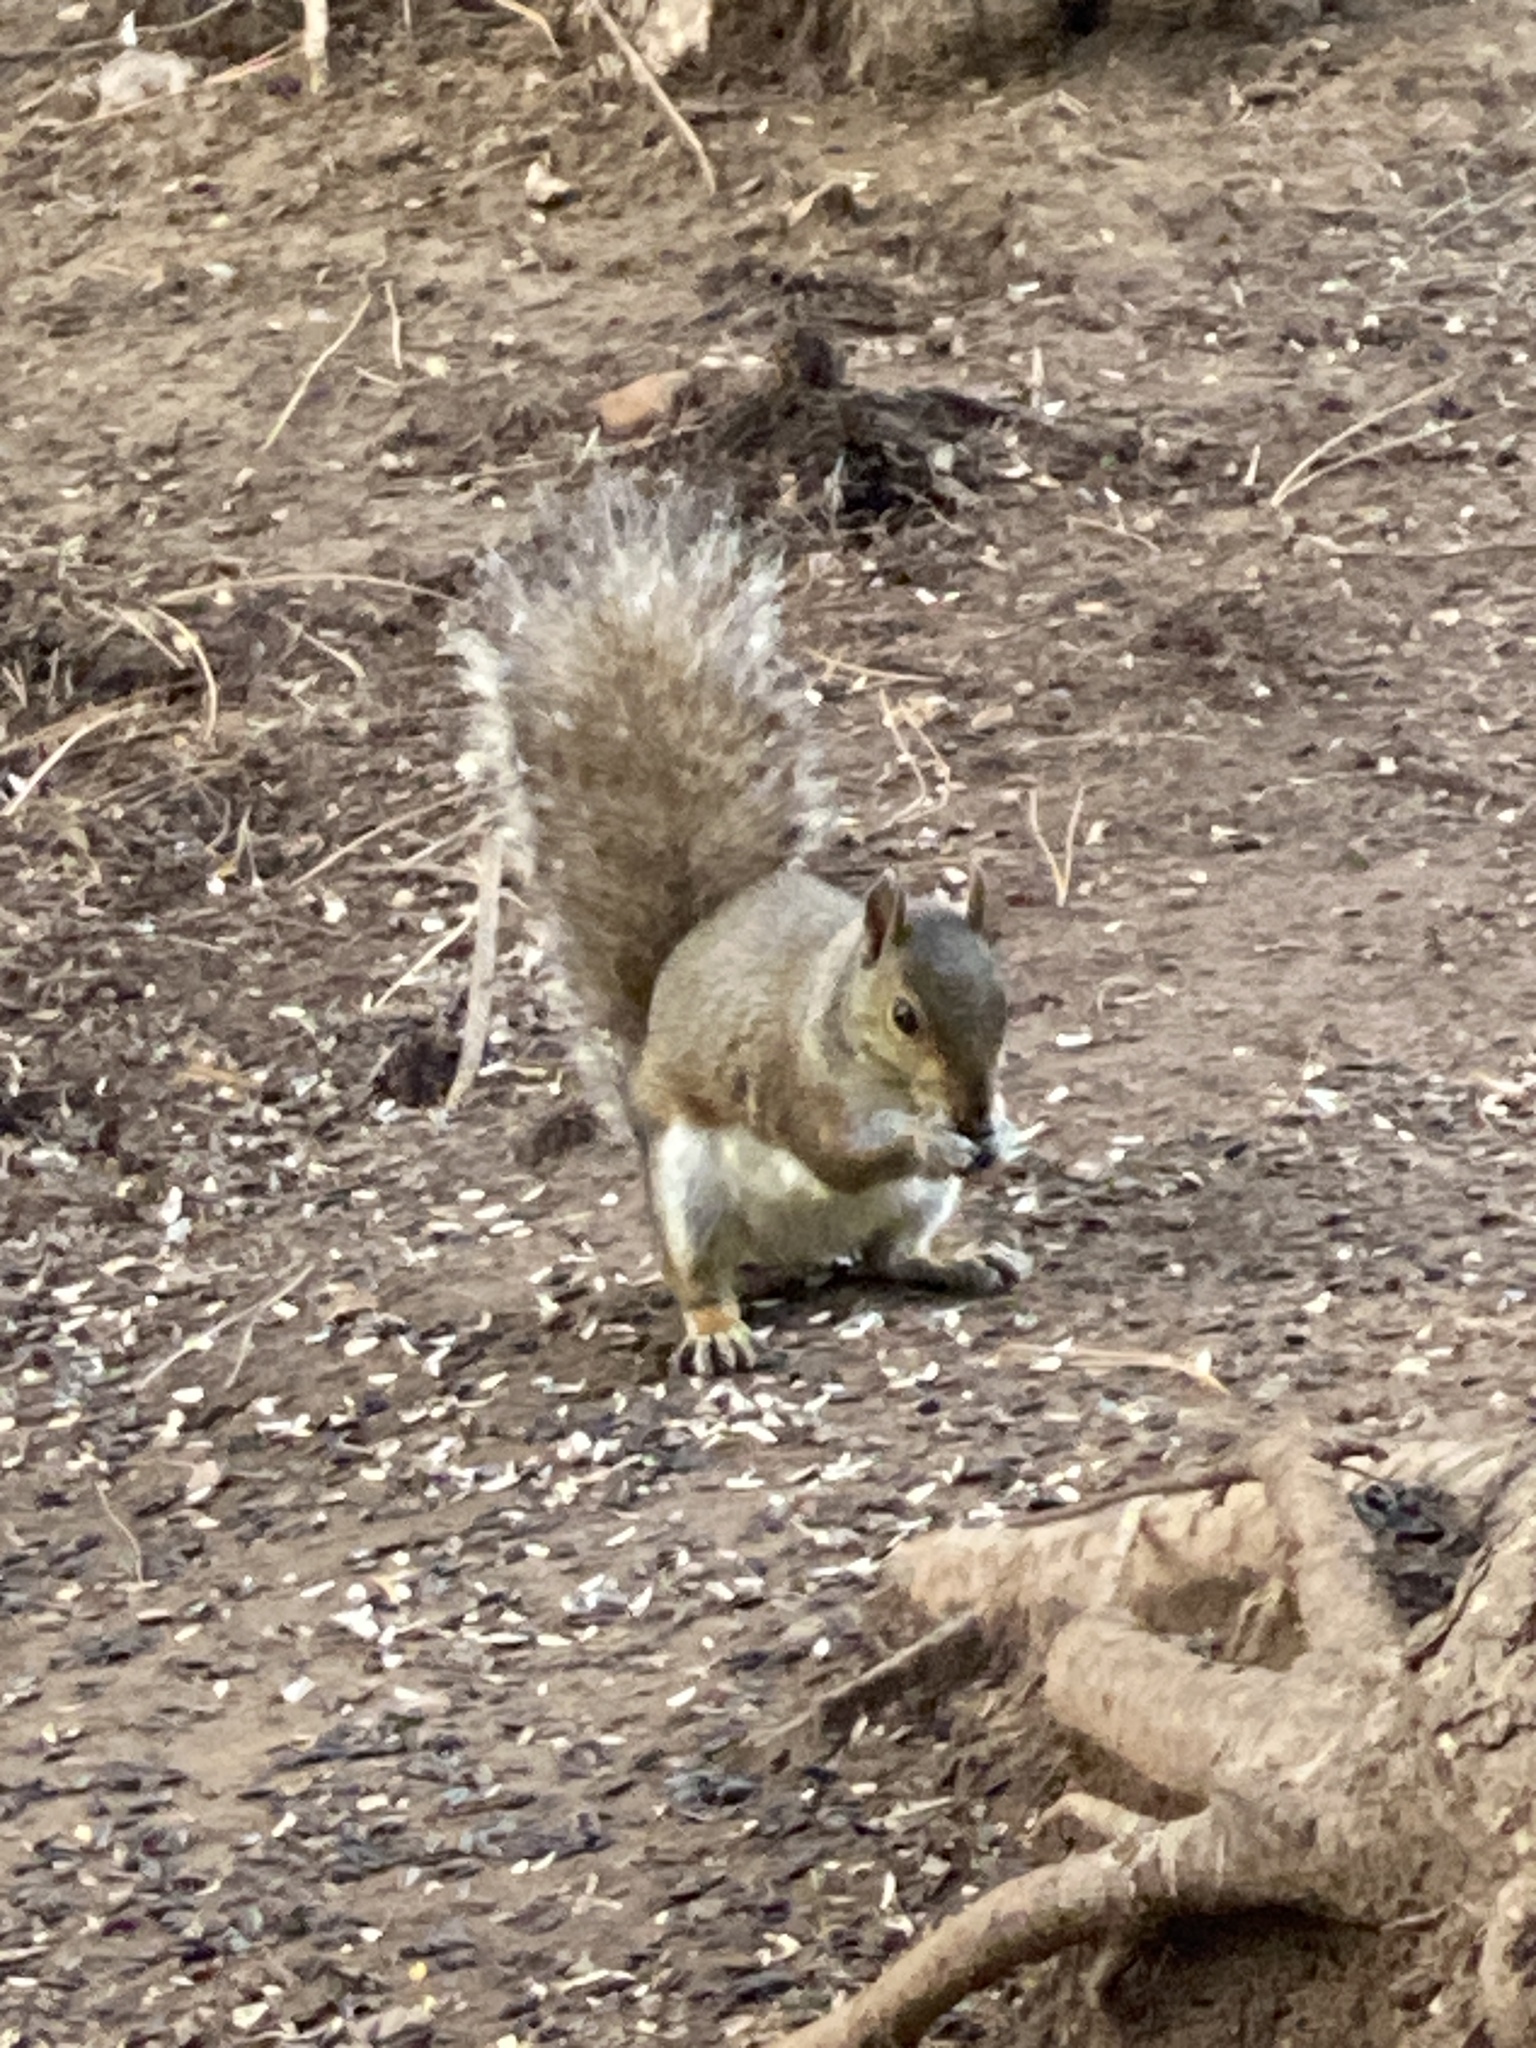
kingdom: Animalia
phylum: Chordata
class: Mammalia
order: Rodentia
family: Sciuridae
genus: Sciurus
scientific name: Sciurus carolinensis
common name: Eastern gray squirrel
